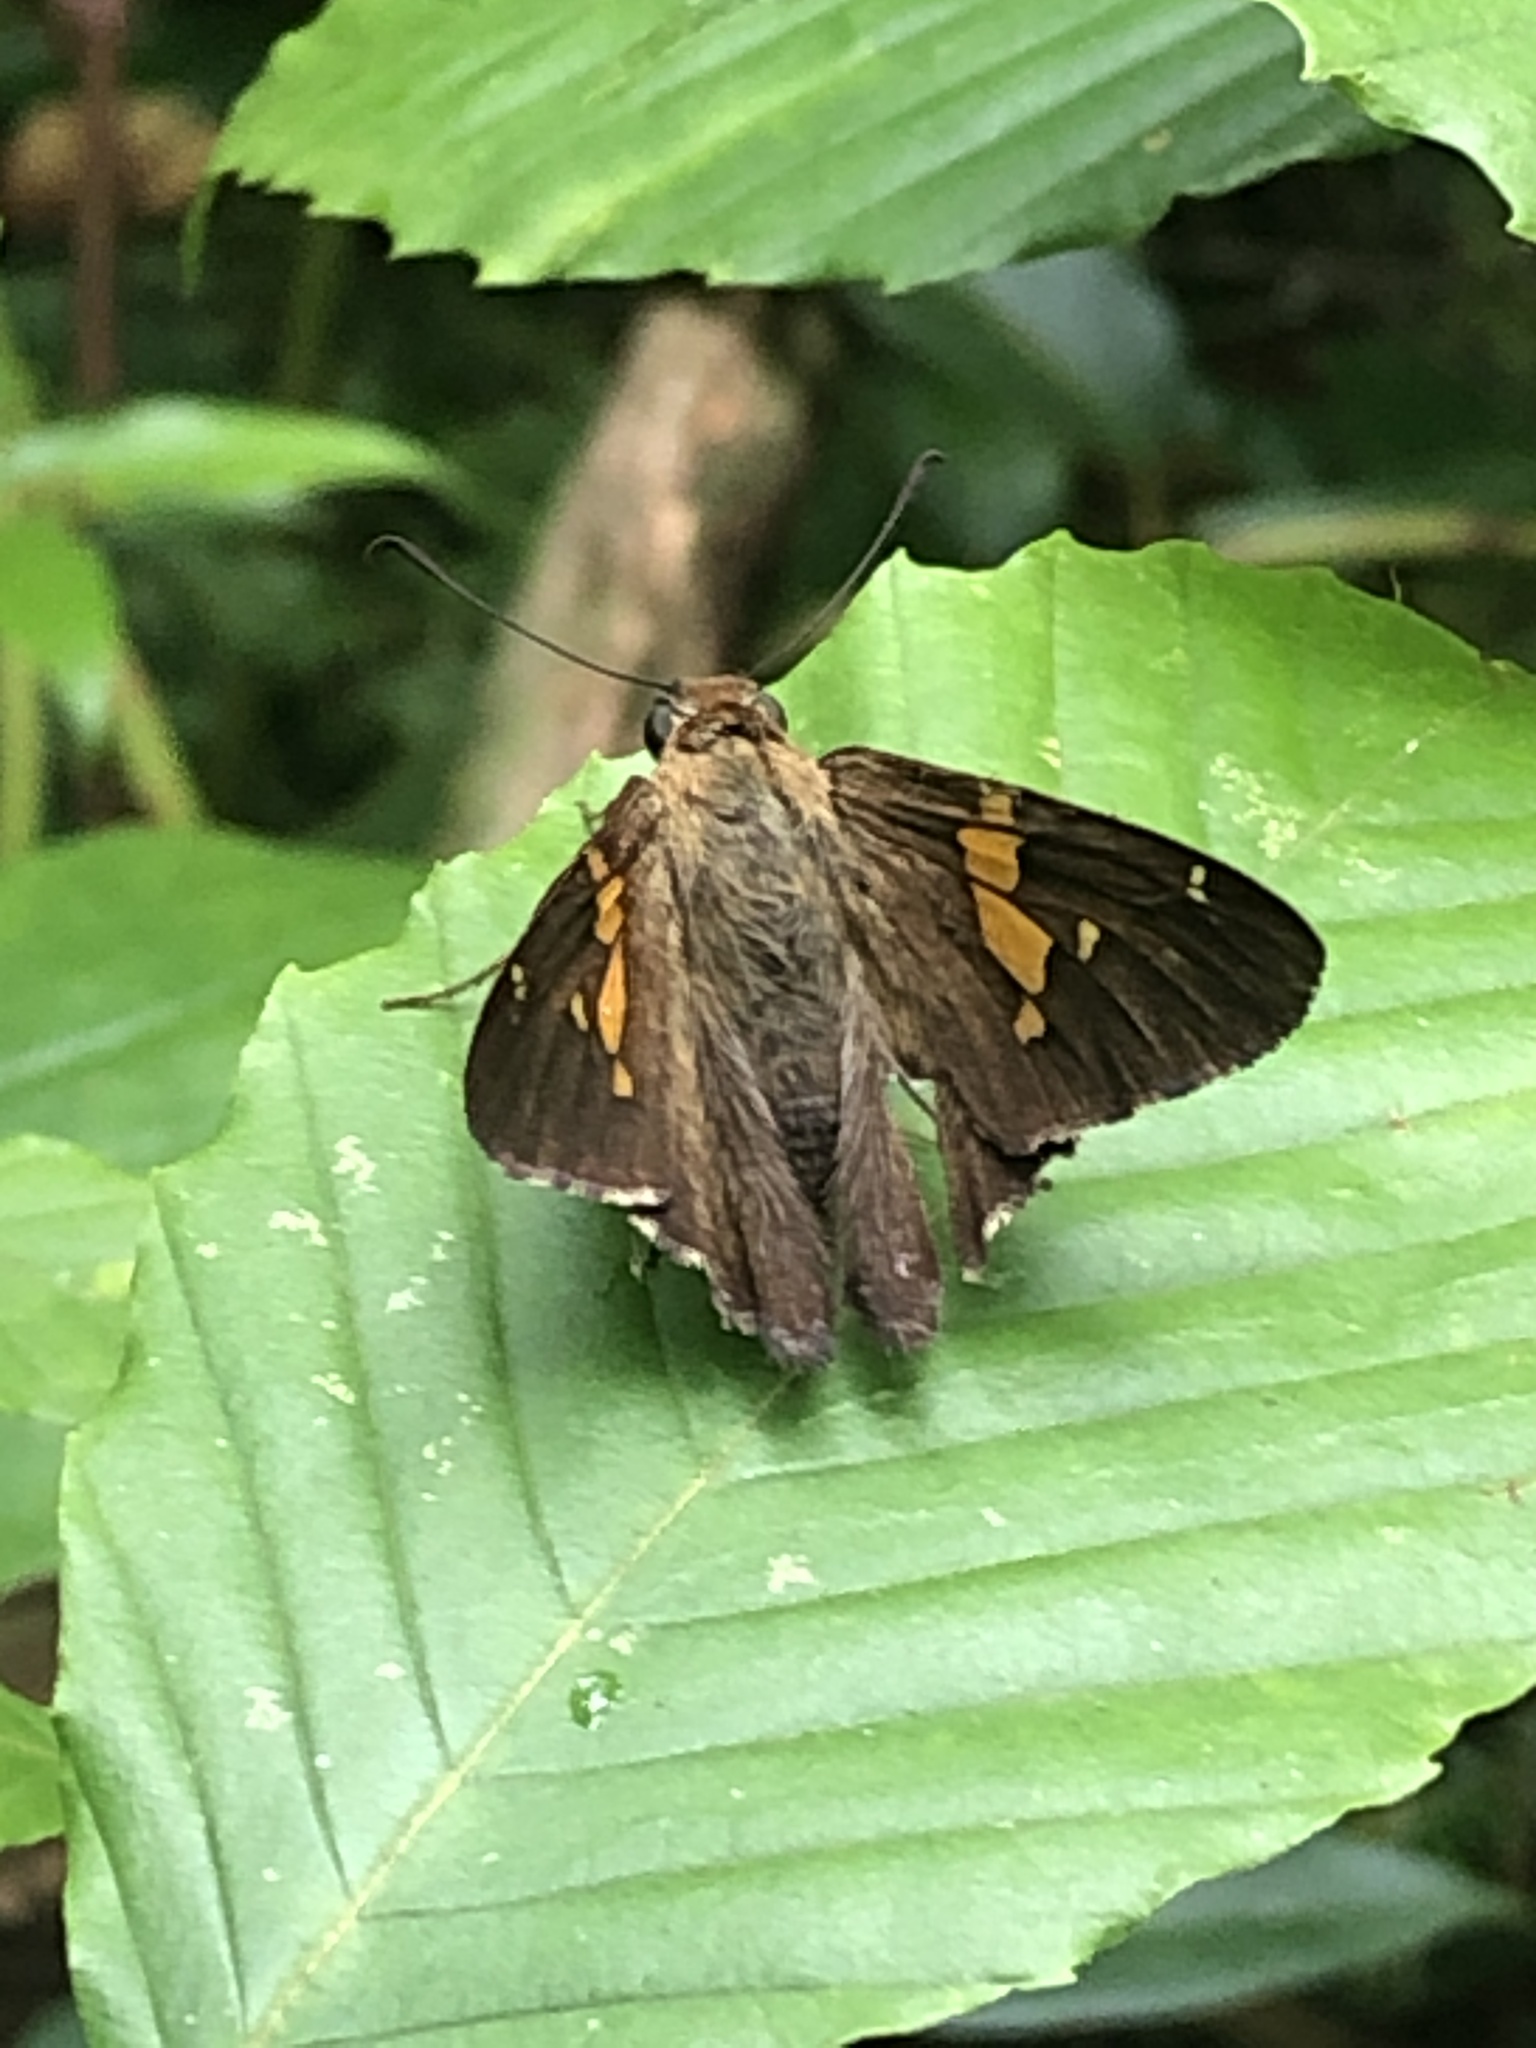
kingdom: Animalia
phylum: Arthropoda
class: Insecta
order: Lepidoptera
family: Hesperiidae
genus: Epargyreus
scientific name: Epargyreus clarus
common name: Silver-spotted skipper
